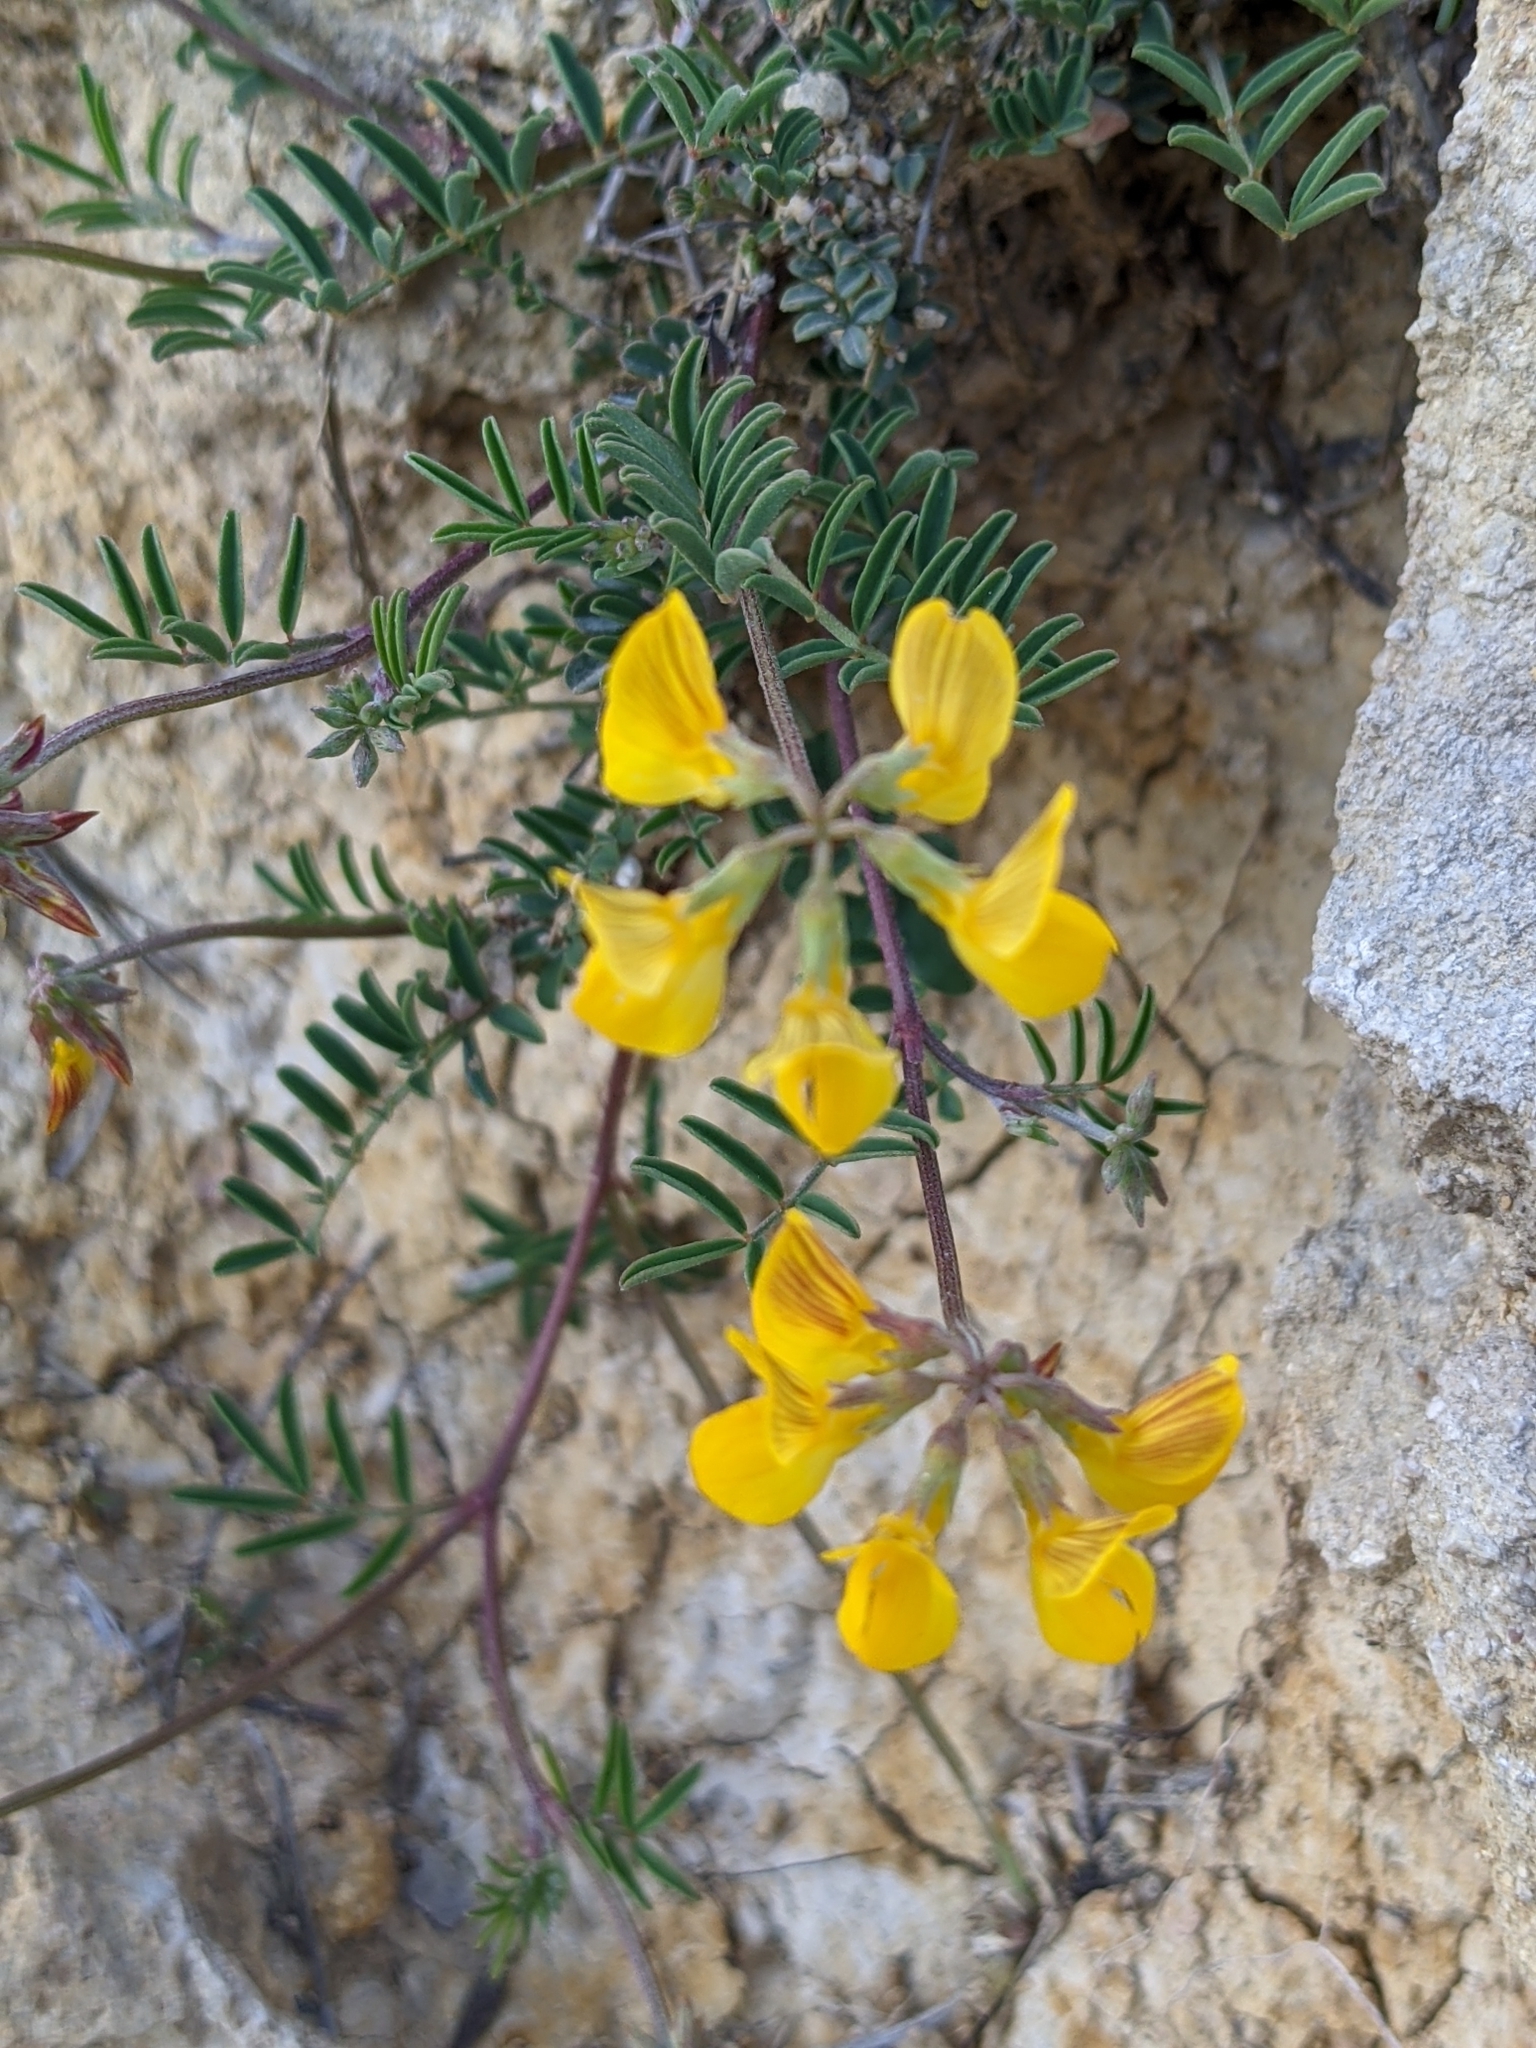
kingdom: Plantae
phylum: Tracheophyta
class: Magnoliopsida
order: Fabales
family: Fabaceae
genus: Hippocrepis
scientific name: Hippocrepis comosa
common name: Horseshoe vetch
